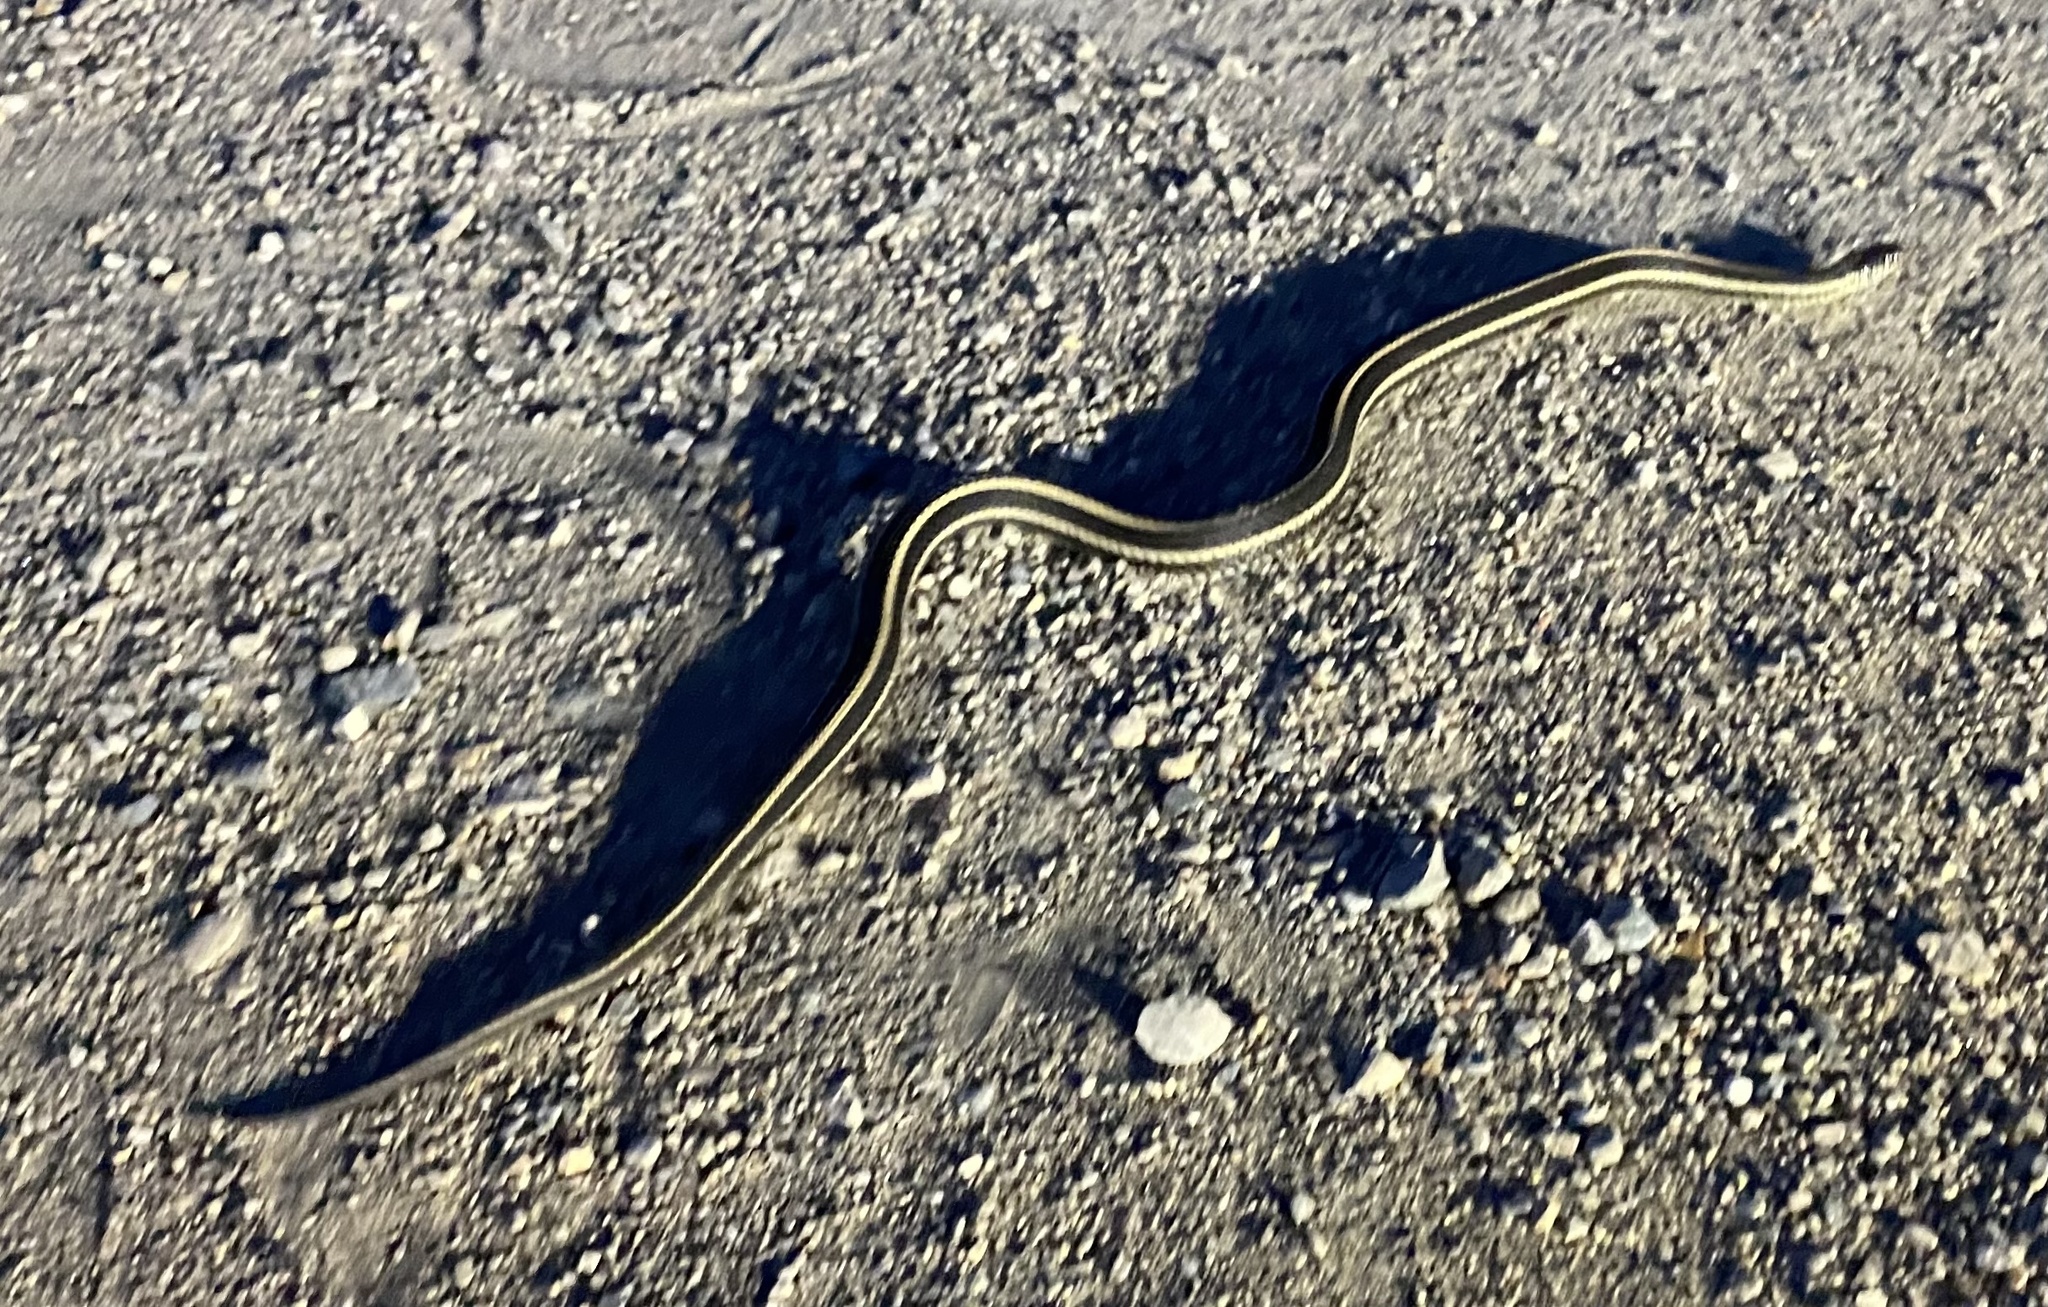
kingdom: Animalia
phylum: Chordata
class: Squamata
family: Colubridae
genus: Thamnophis
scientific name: Thamnophis radix
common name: Plains garter snake
